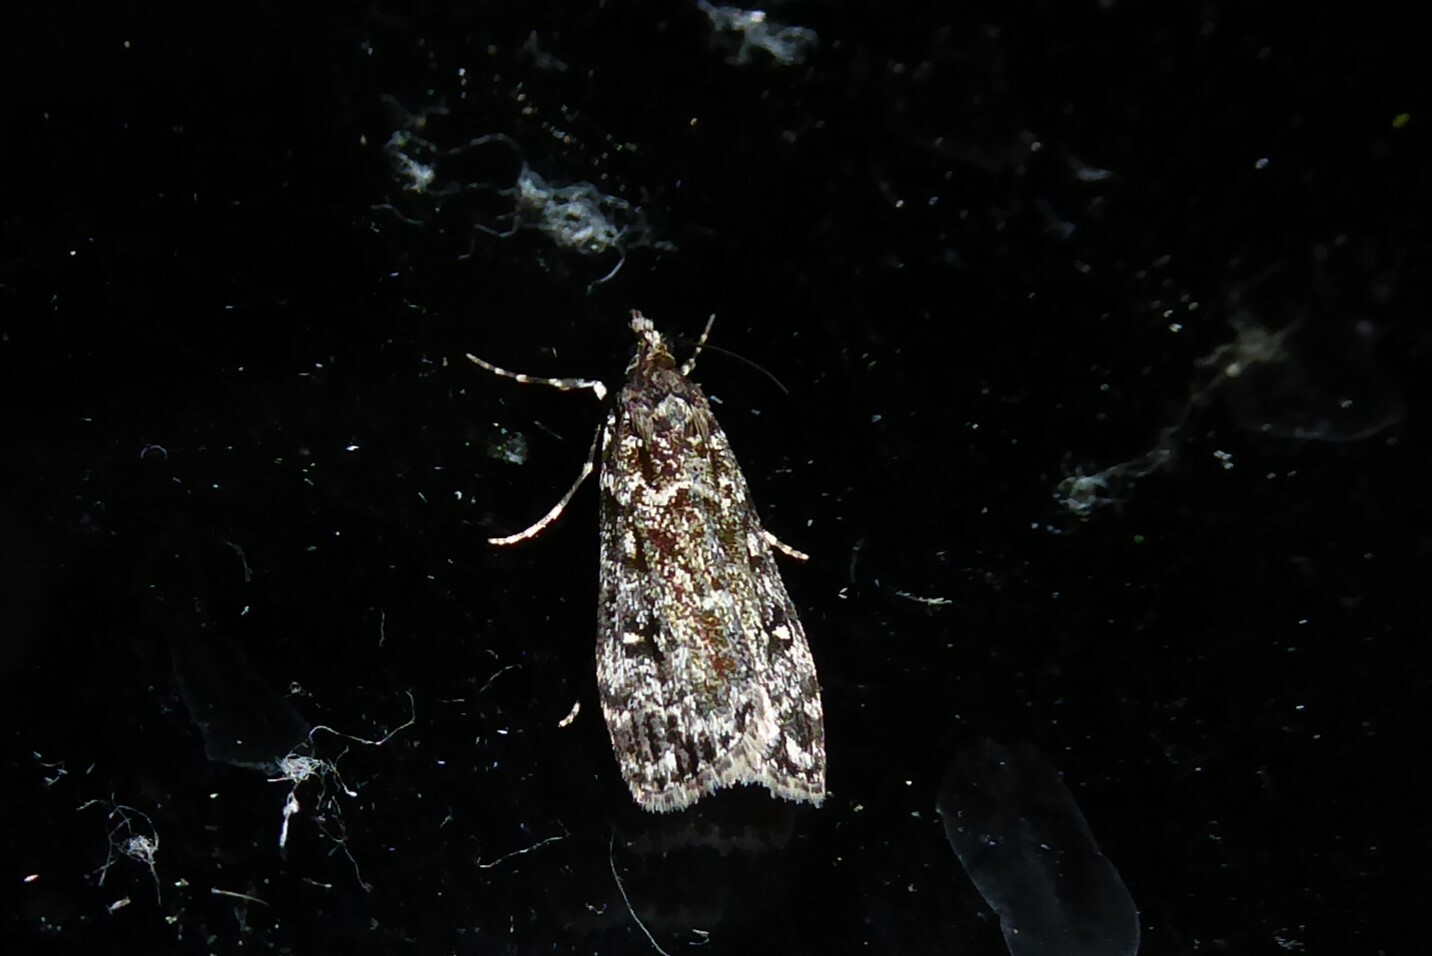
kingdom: Animalia
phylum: Arthropoda
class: Insecta
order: Lepidoptera
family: Crambidae
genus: Eudonia
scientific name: Eudonia philerga
